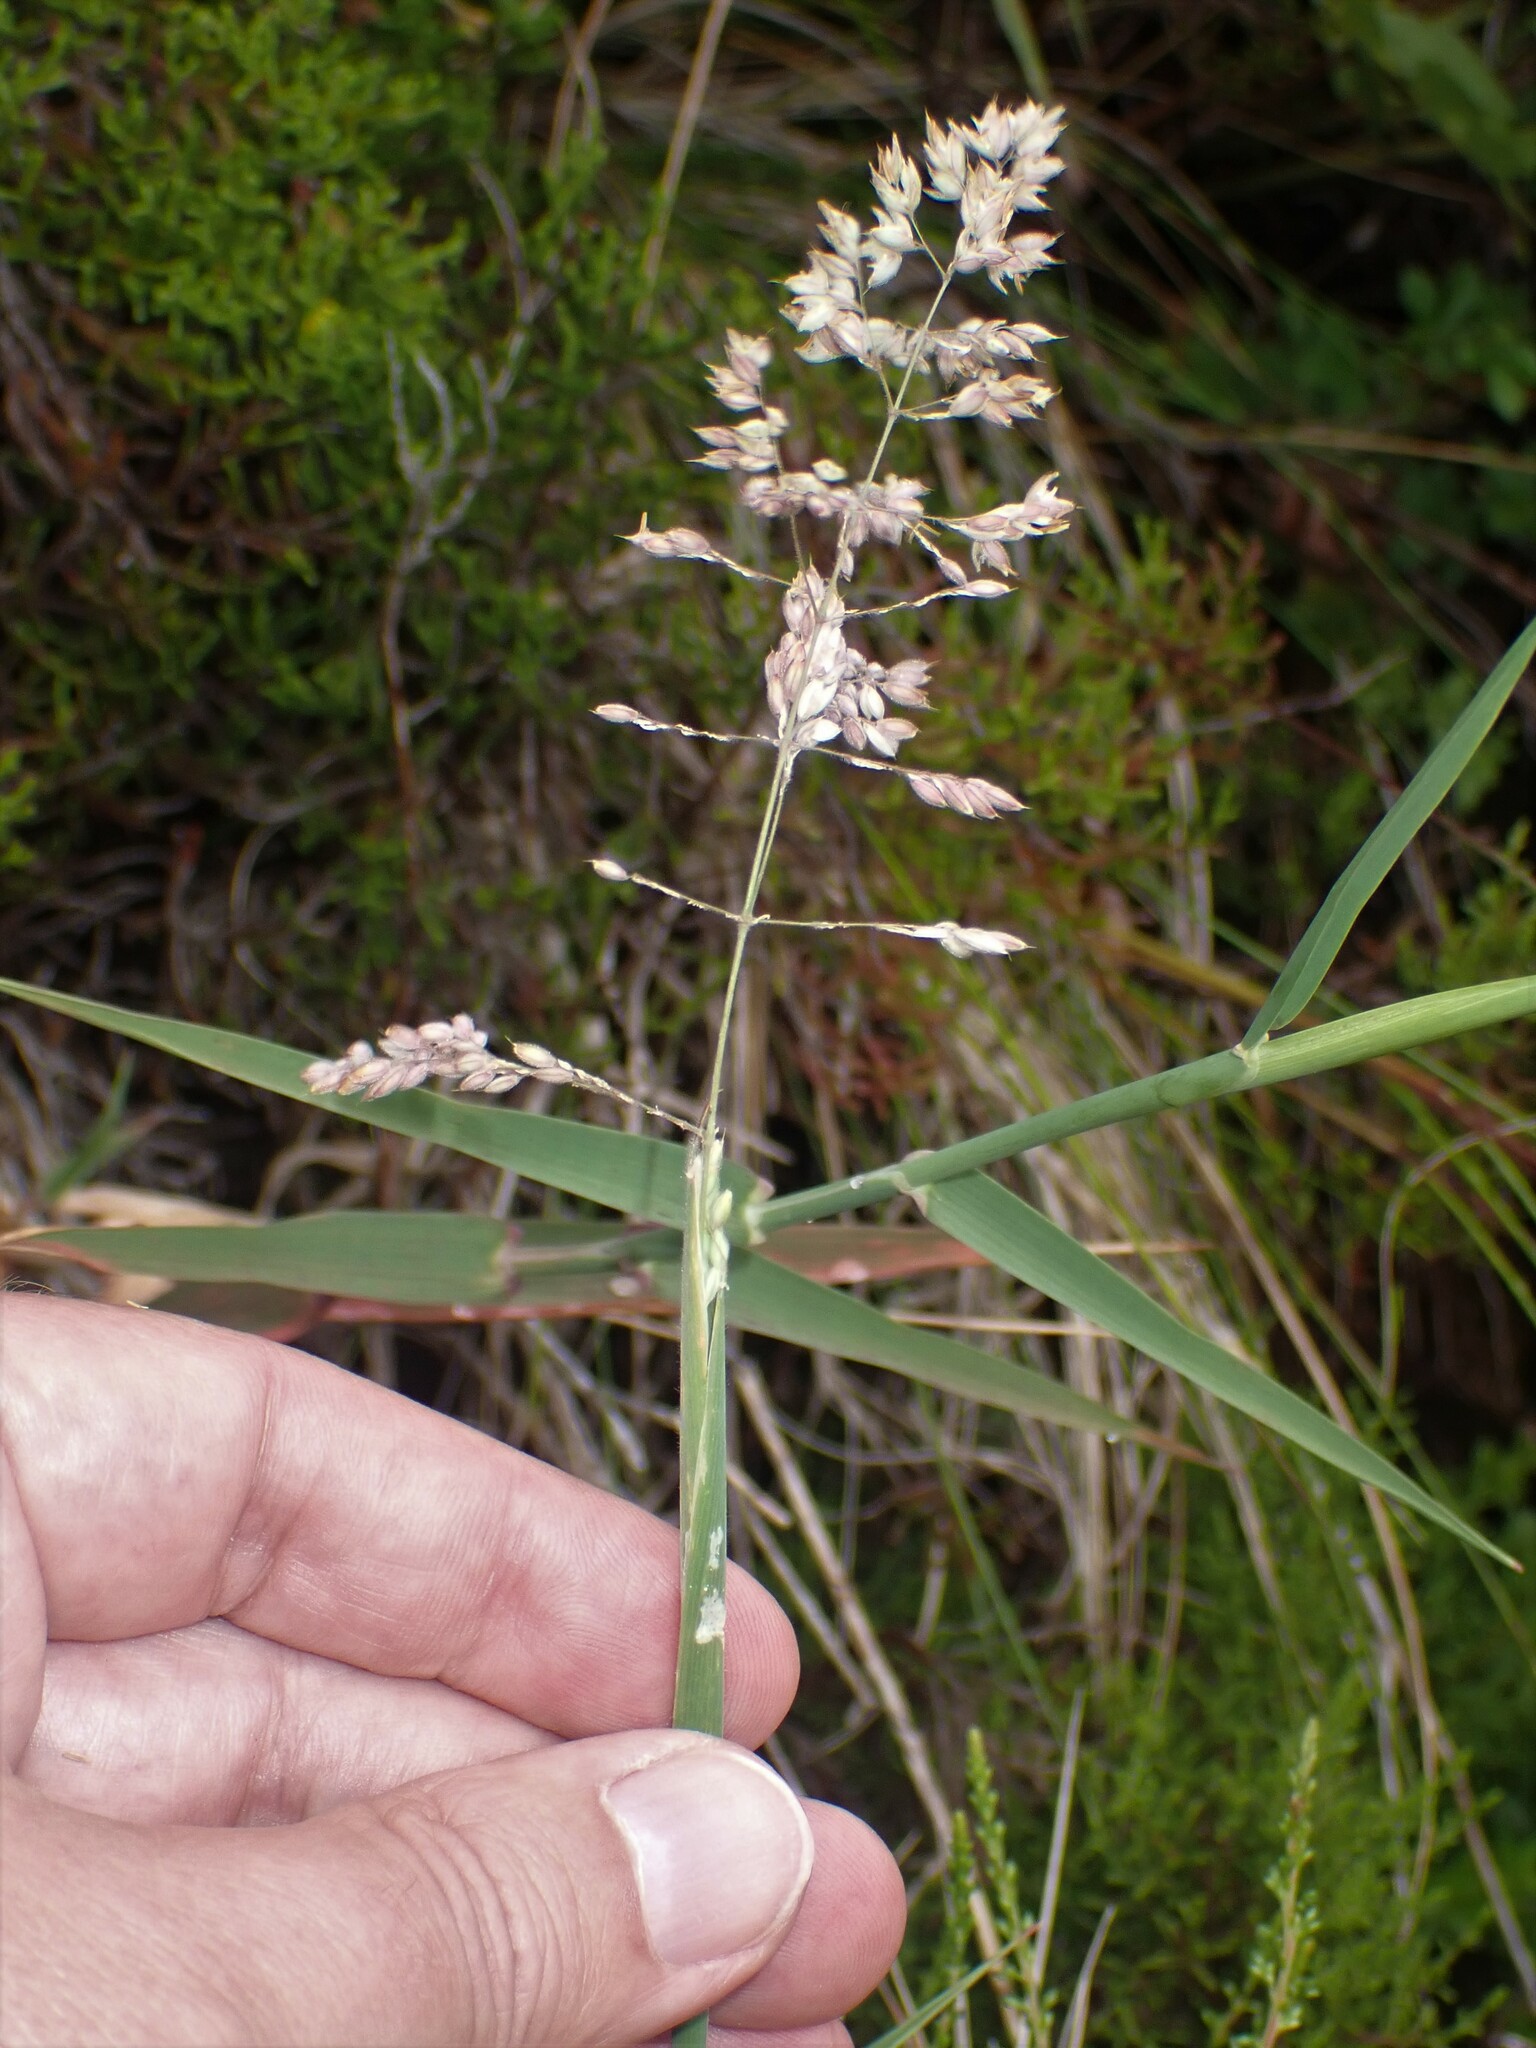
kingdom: Plantae
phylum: Tracheophyta
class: Liliopsida
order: Poales
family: Poaceae
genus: Holcus
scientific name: Holcus rigidus
